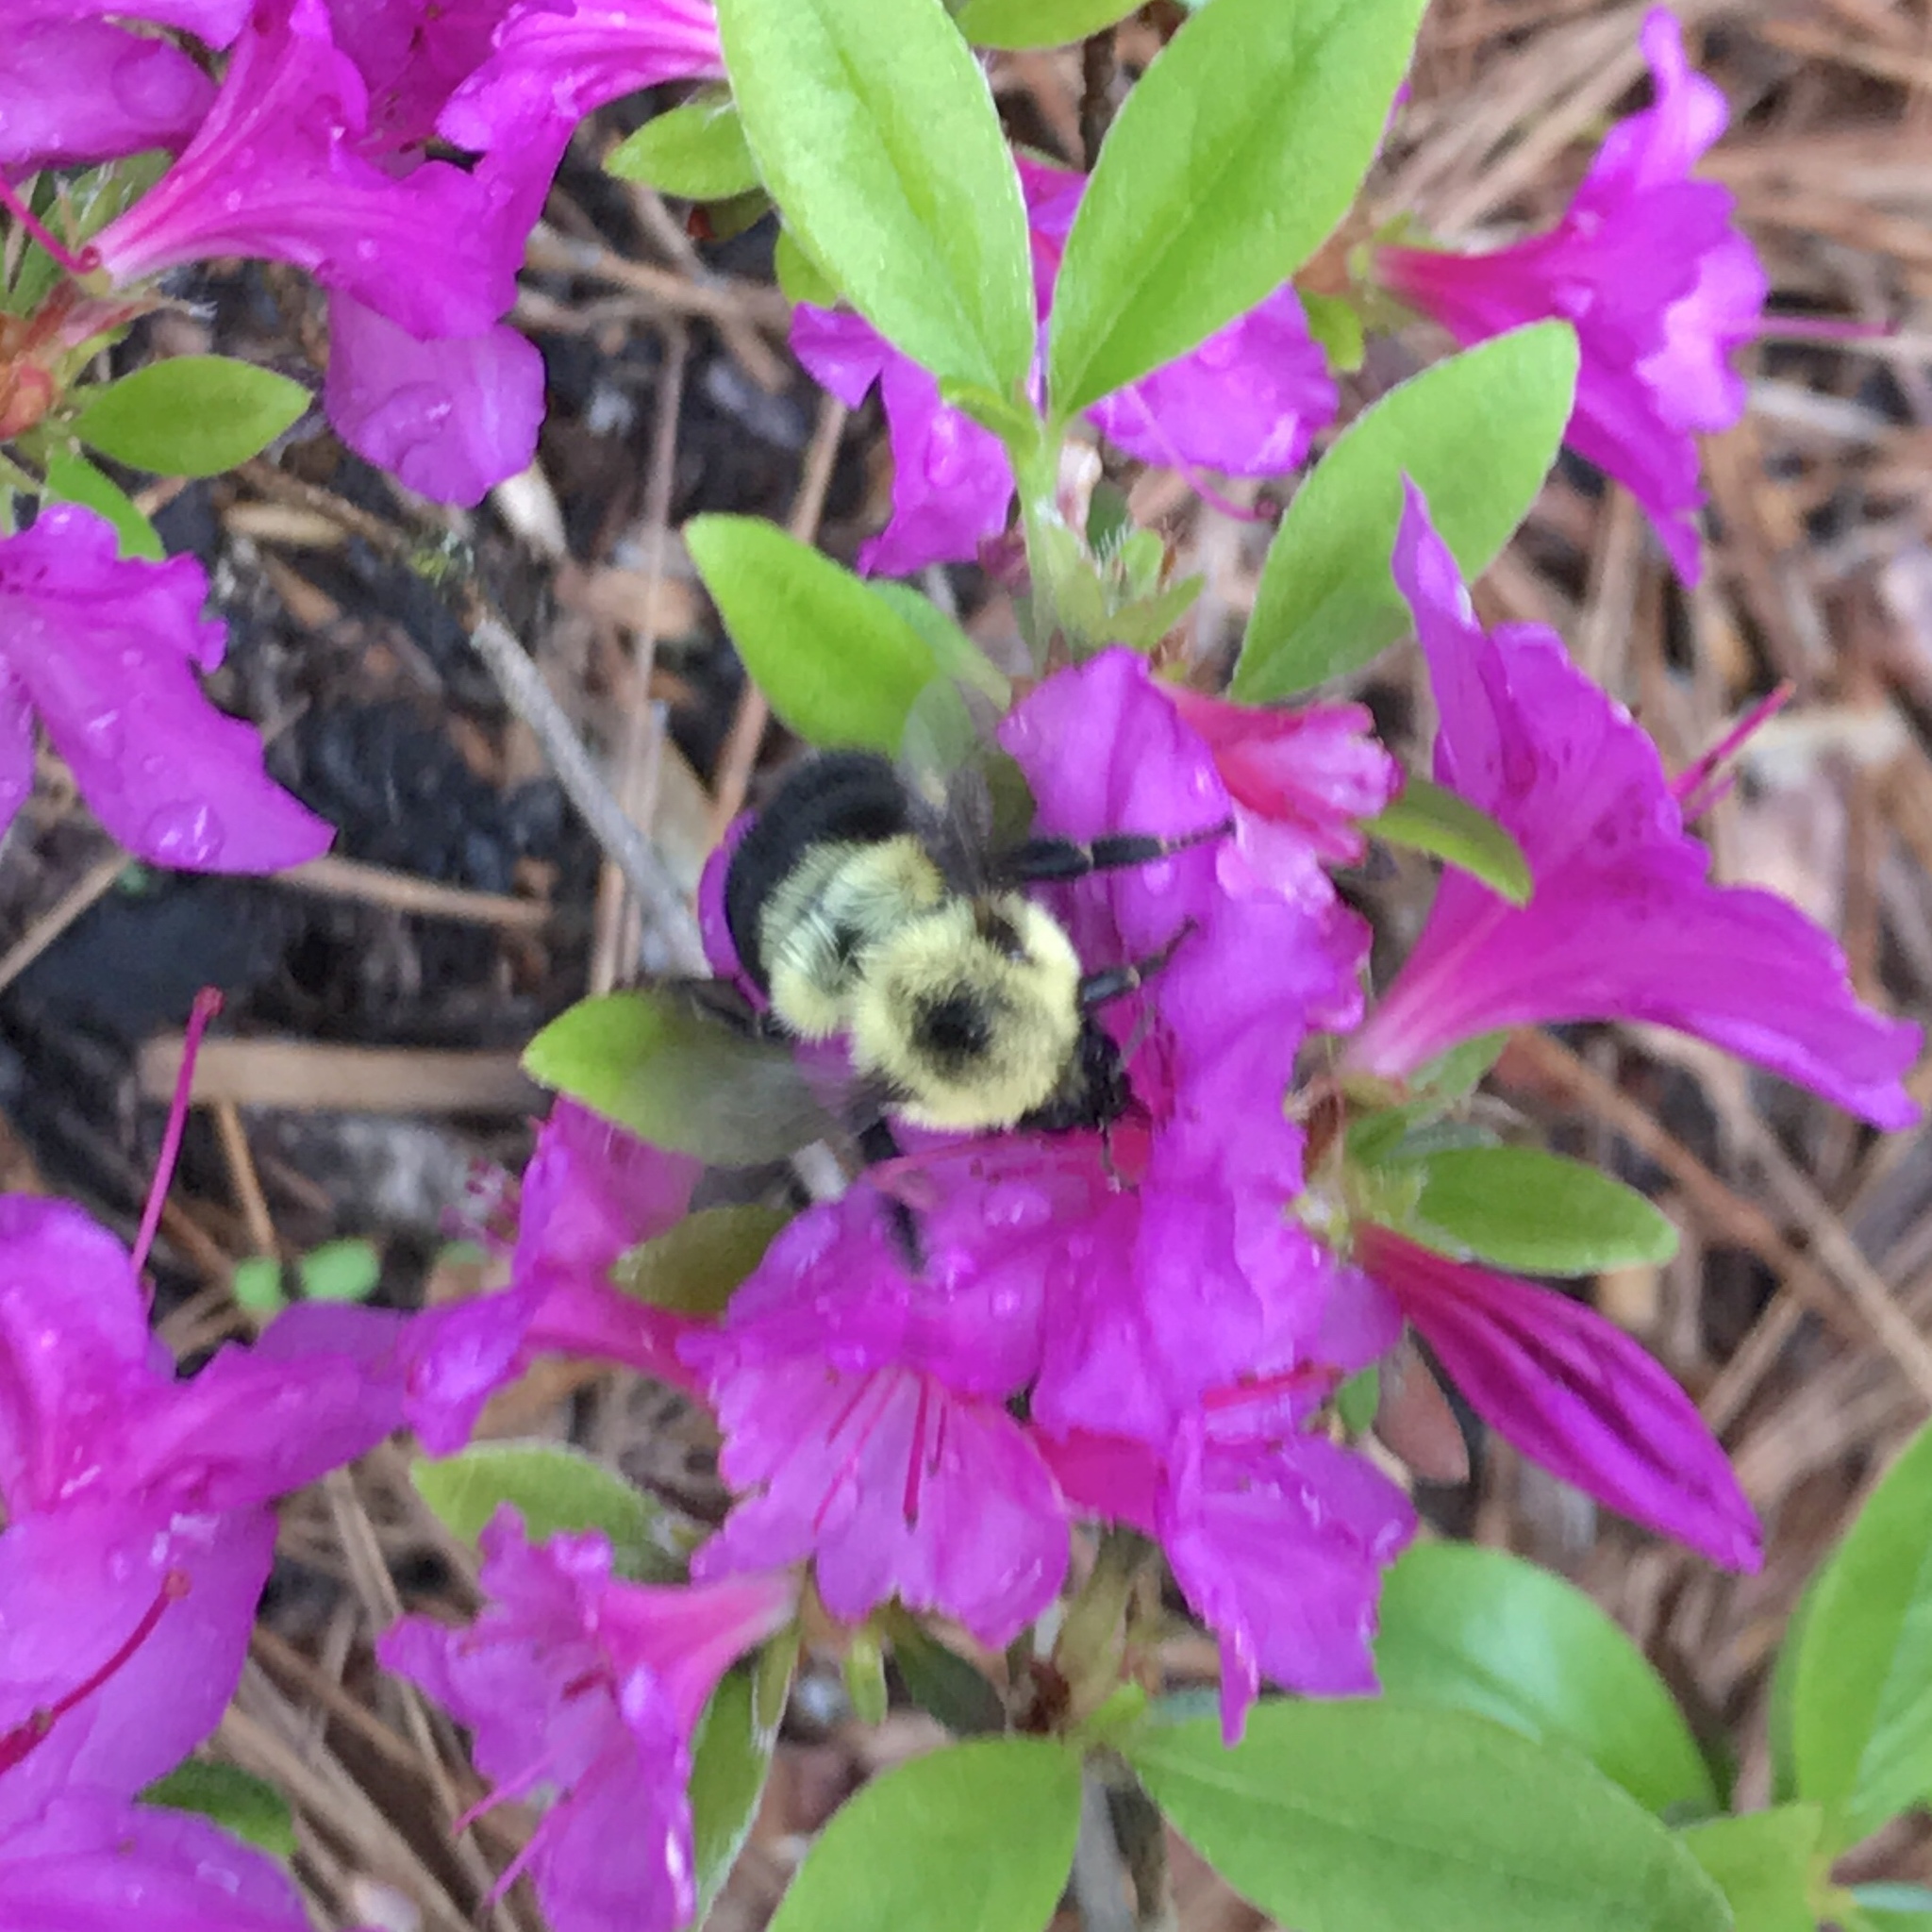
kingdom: Animalia
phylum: Arthropoda
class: Insecta
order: Hymenoptera
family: Apidae
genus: Bombus
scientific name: Bombus bimaculatus
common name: Two-spotted bumble bee
